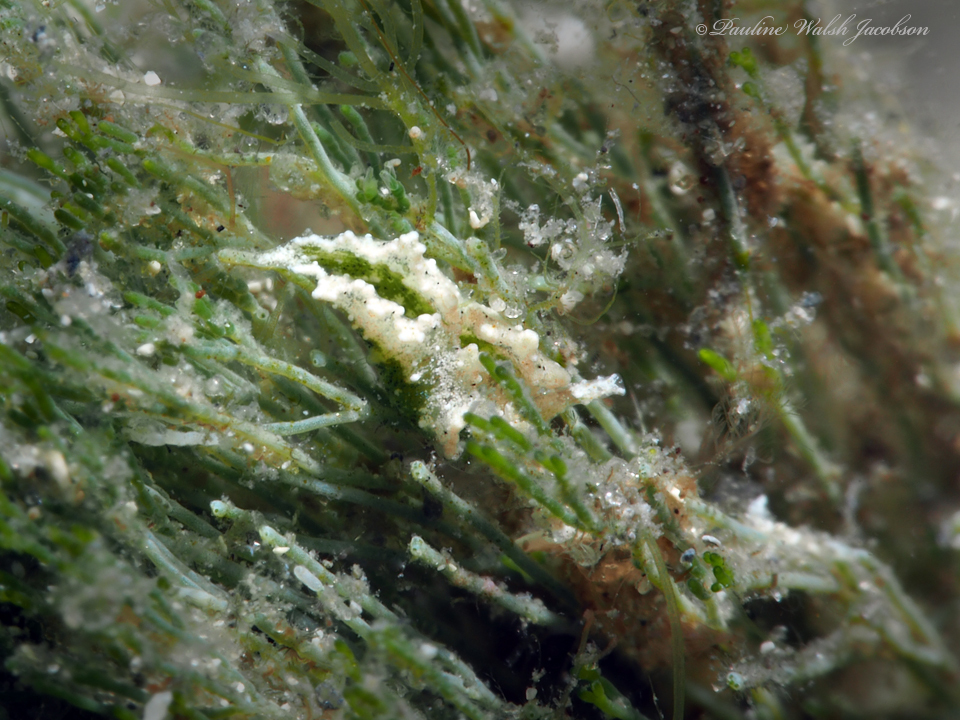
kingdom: Animalia
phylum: Mollusca
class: Gastropoda
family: Plakobranchidae
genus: Elysia
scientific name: Elysia papillosa
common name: Papillose elysia
